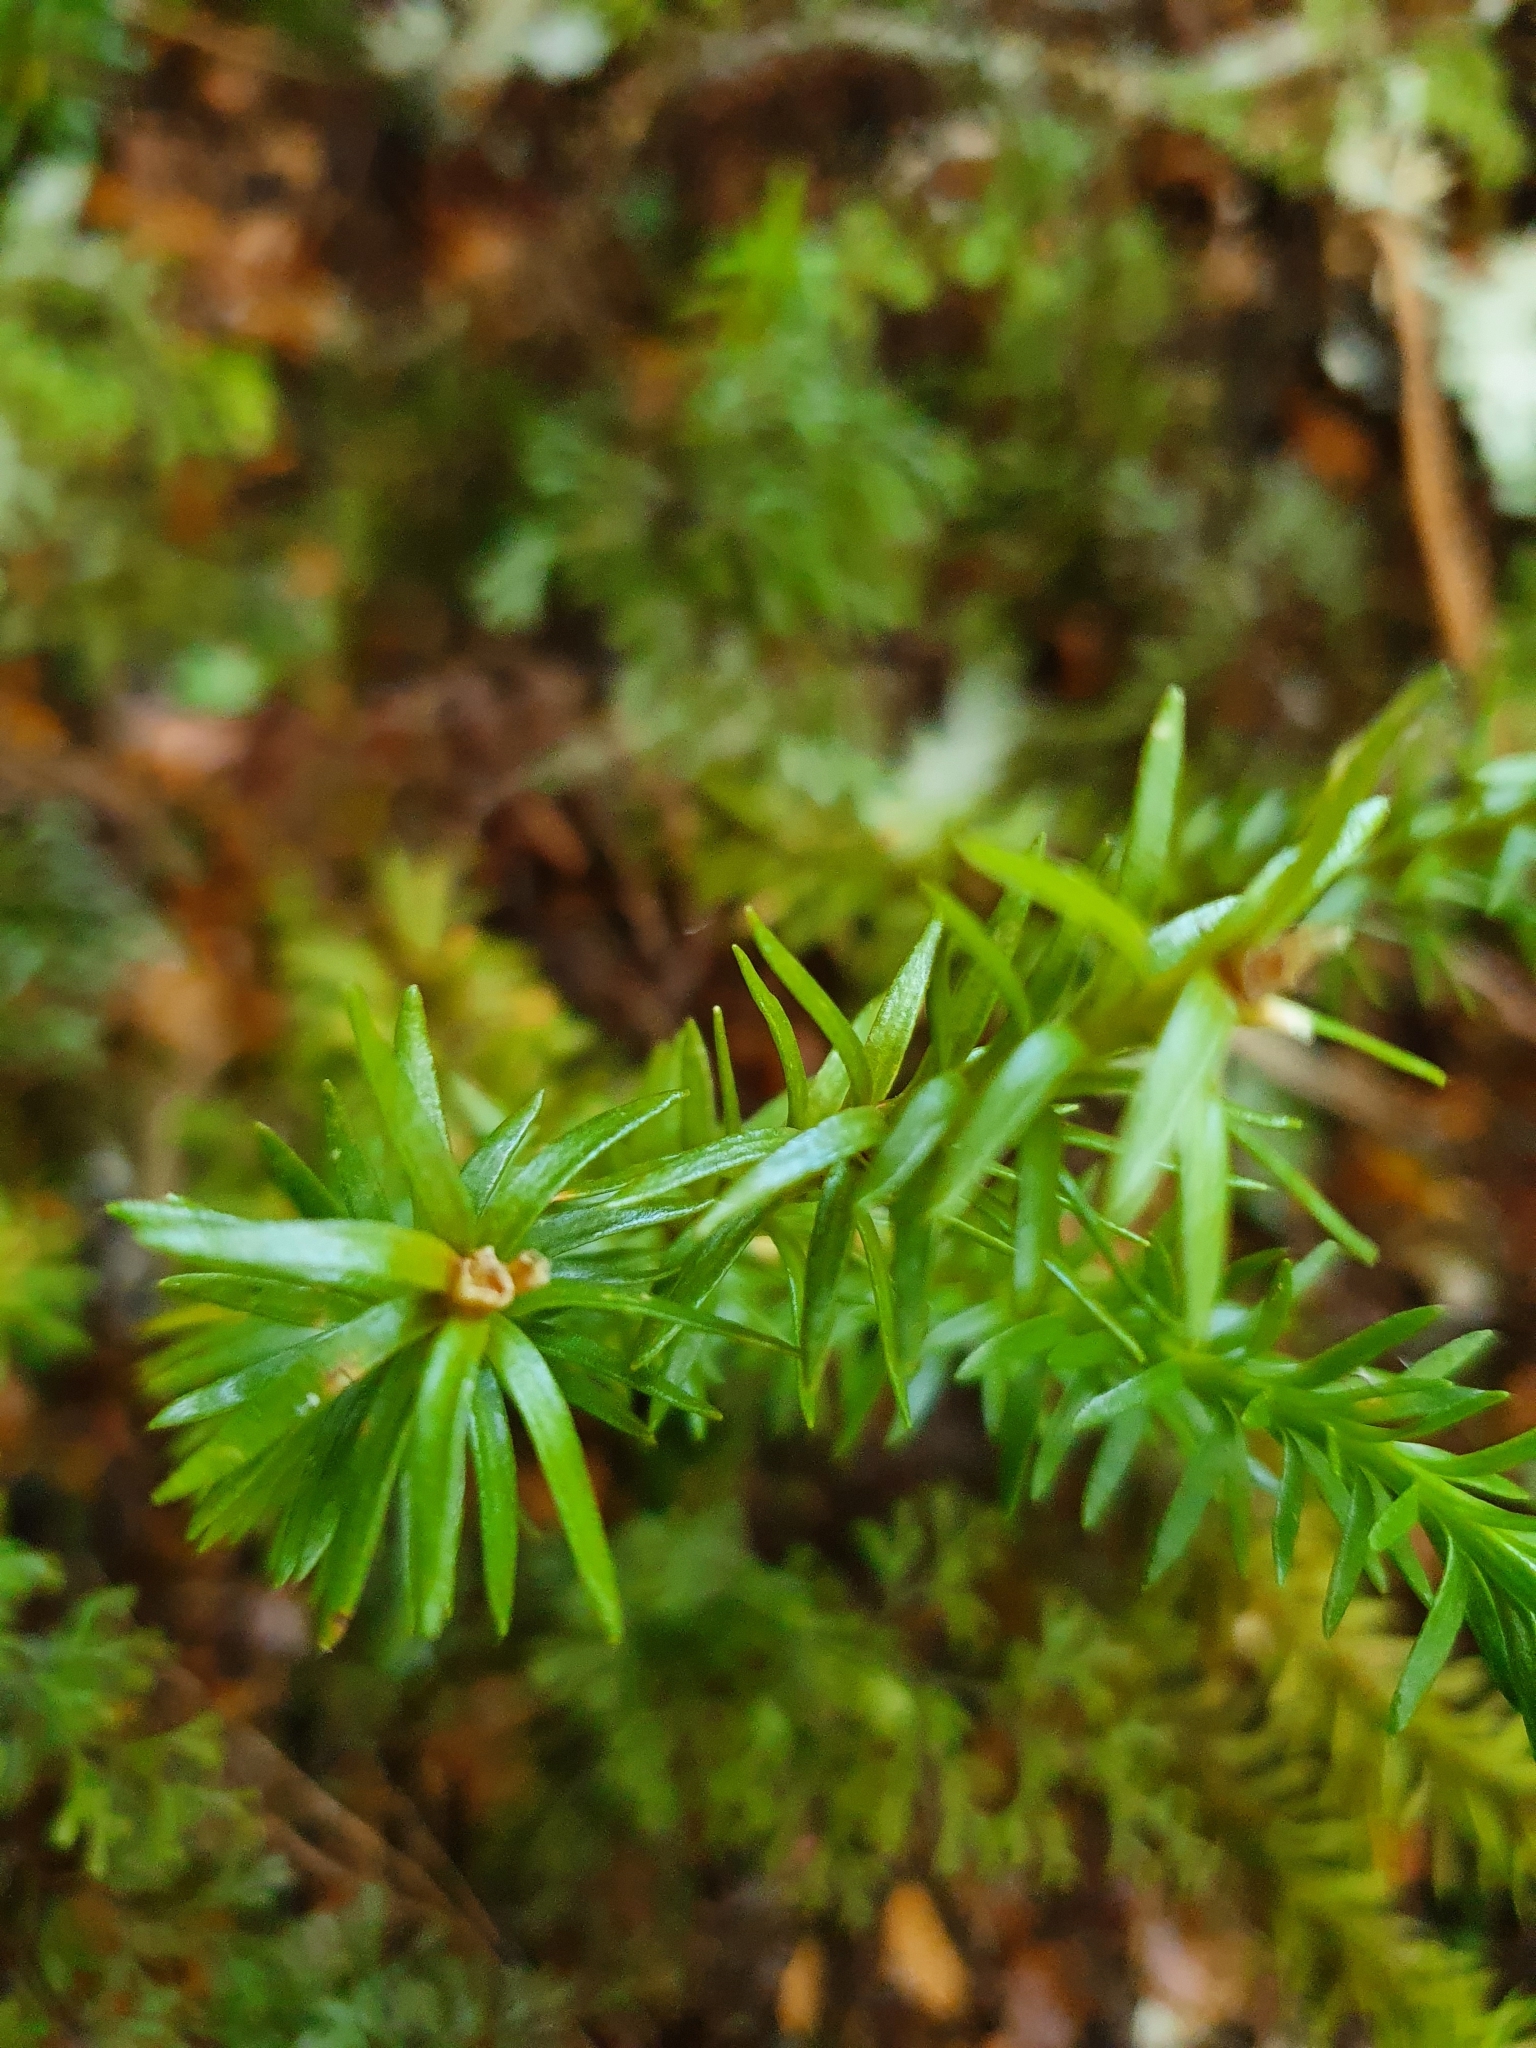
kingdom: Plantae
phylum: Tracheophyta
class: Lycopodiopsida
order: Lycopodiales
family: Lycopodiaceae
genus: Phlegmariurus
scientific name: Phlegmariurus
